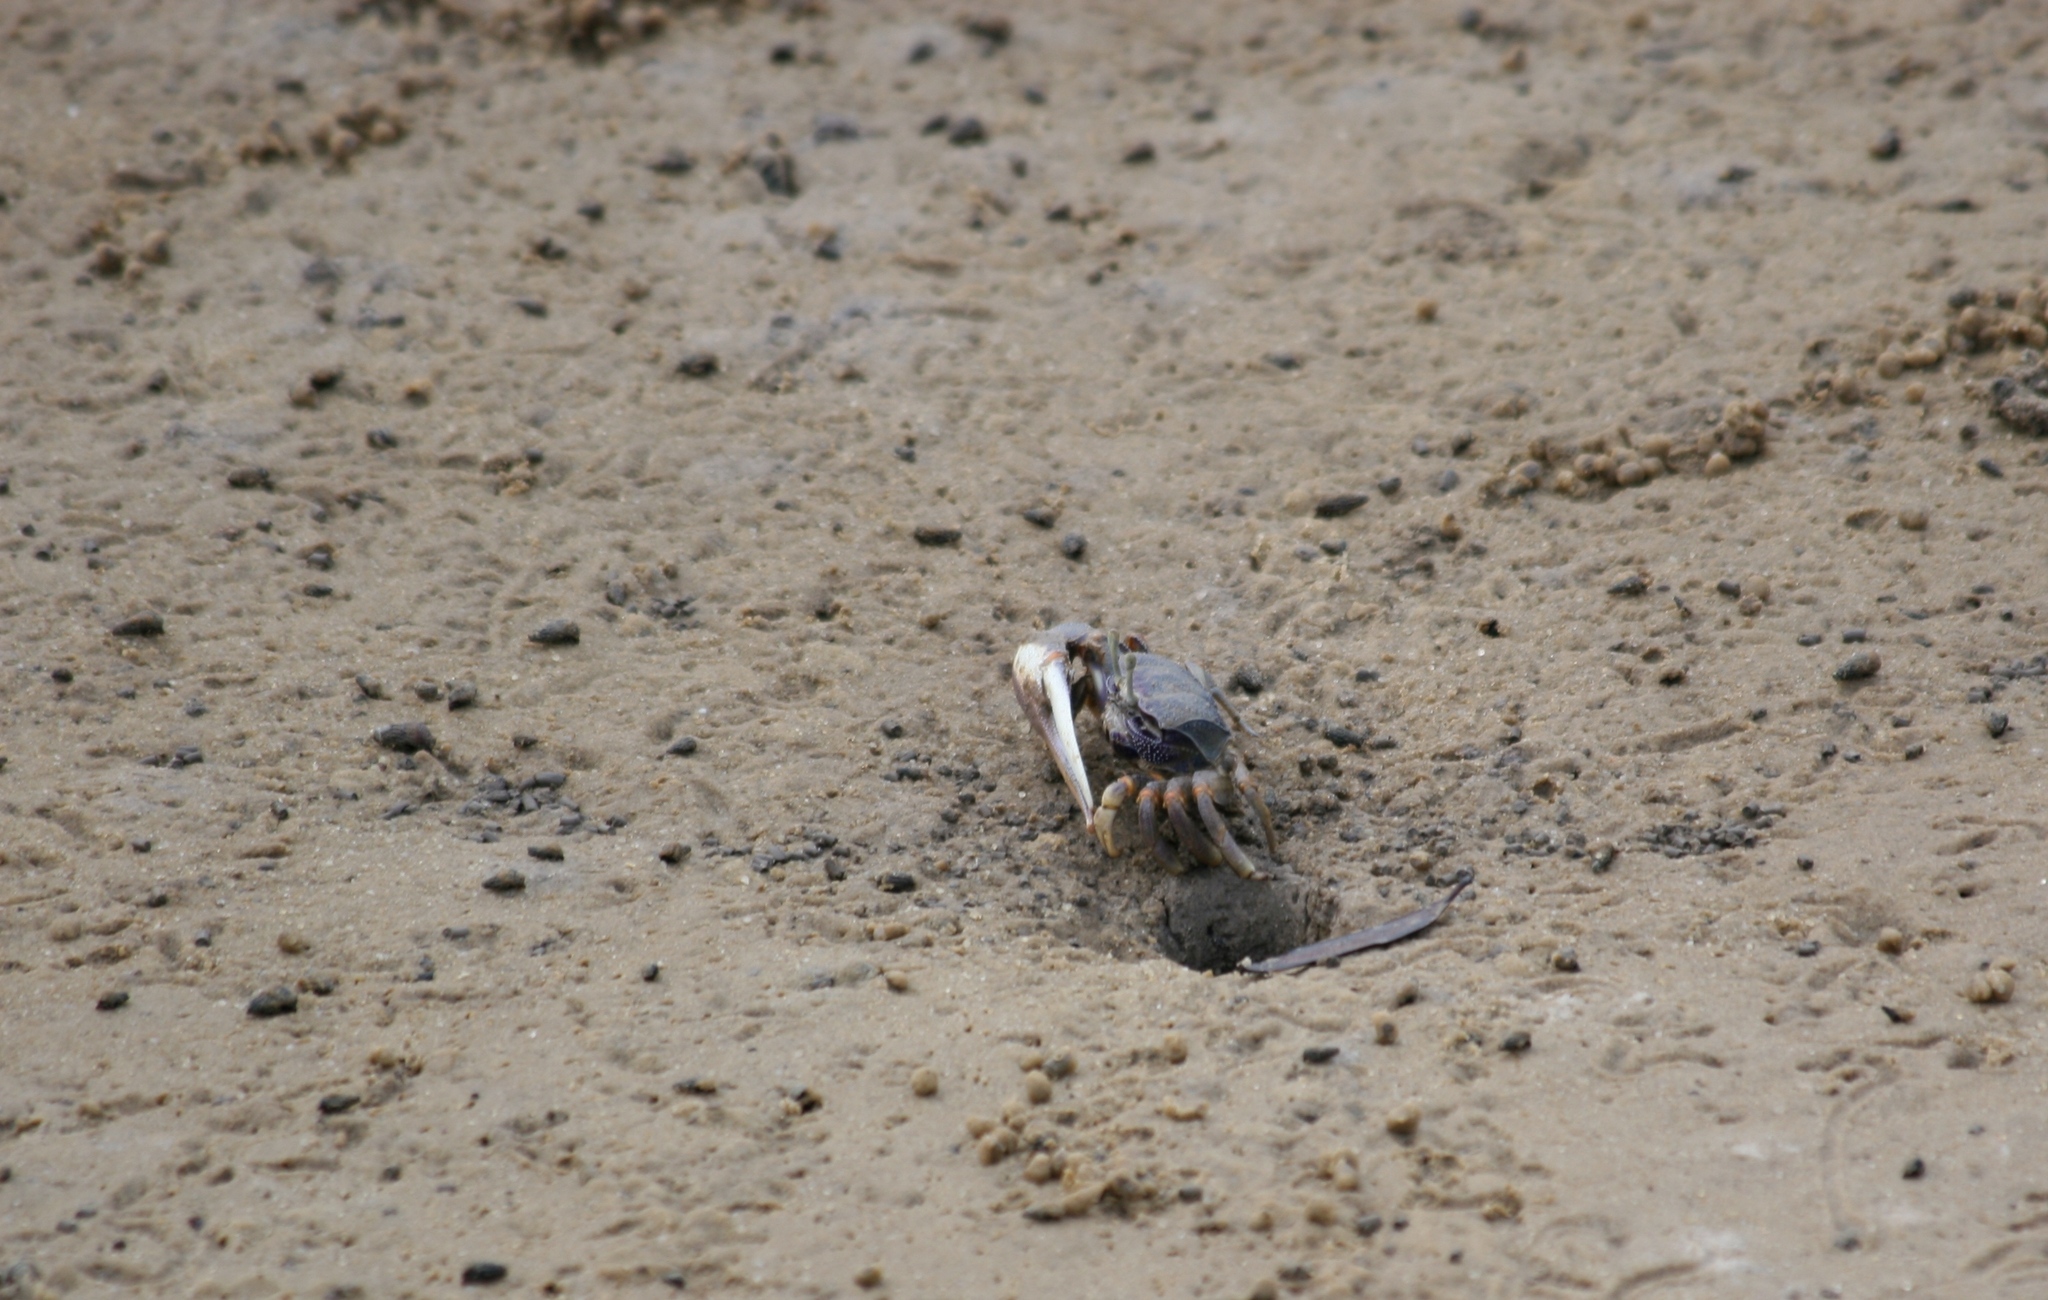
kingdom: Animalia
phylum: Arthropoda
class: Malacostraca
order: Decapoda
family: Ocypodidae
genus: Afruca
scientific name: Afruca tangeri
